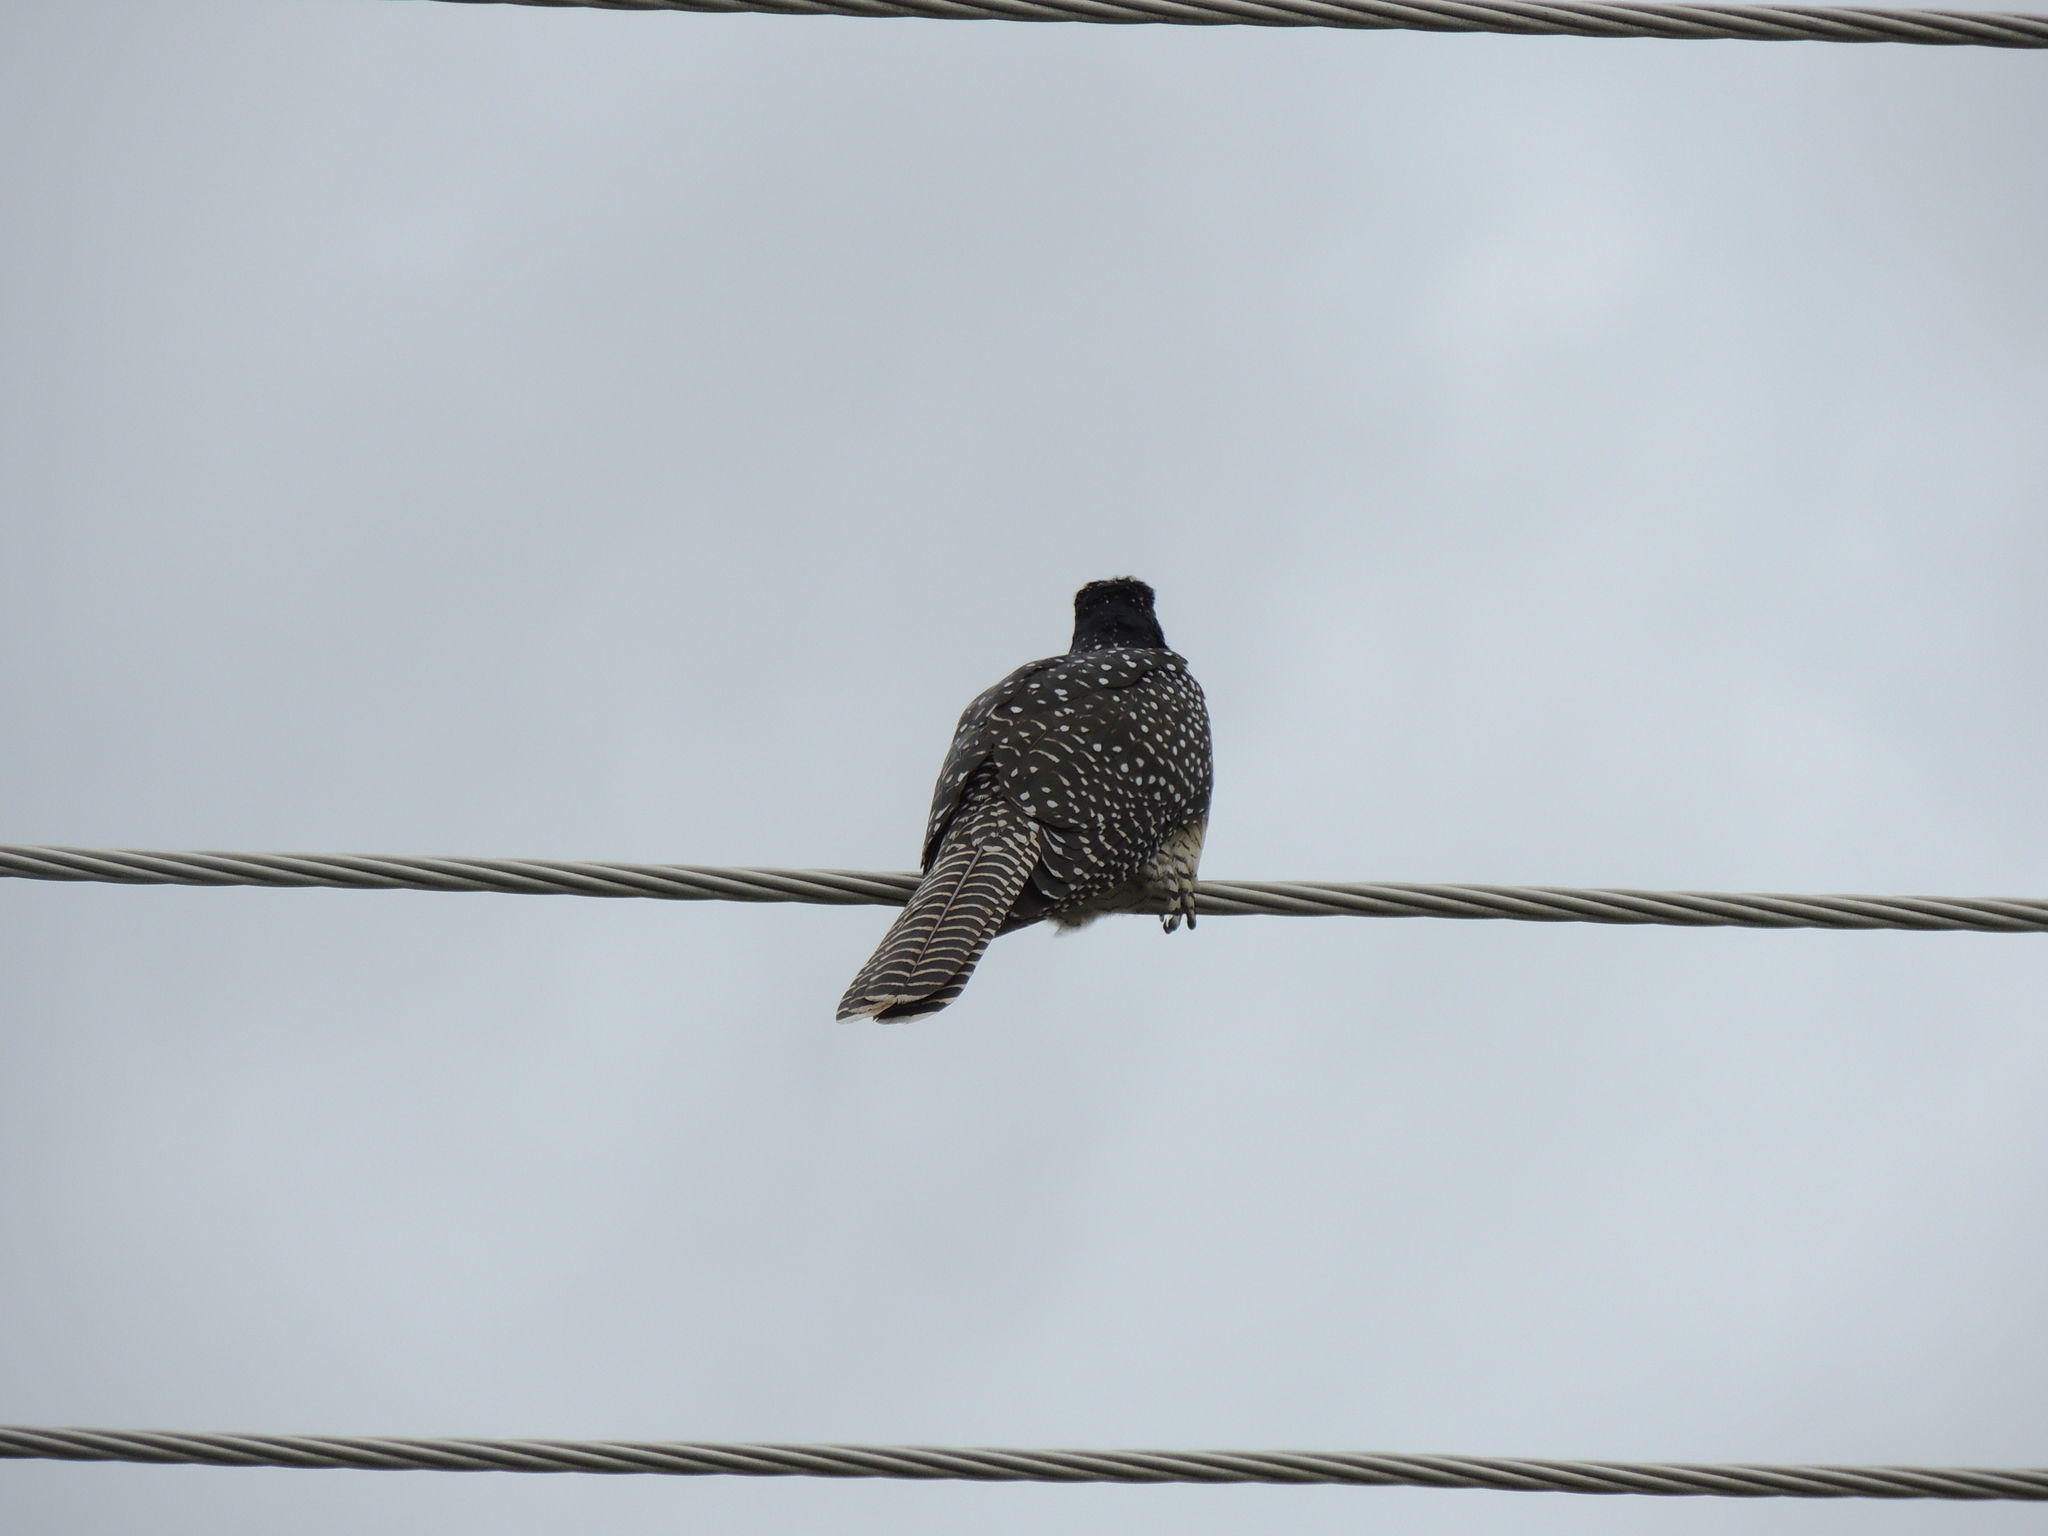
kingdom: Animalia
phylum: Chordata
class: Aves
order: Cuculiformes
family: Cuculidae
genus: Eudynamys
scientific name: Eudynamys orientalis
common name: Pacific koel
